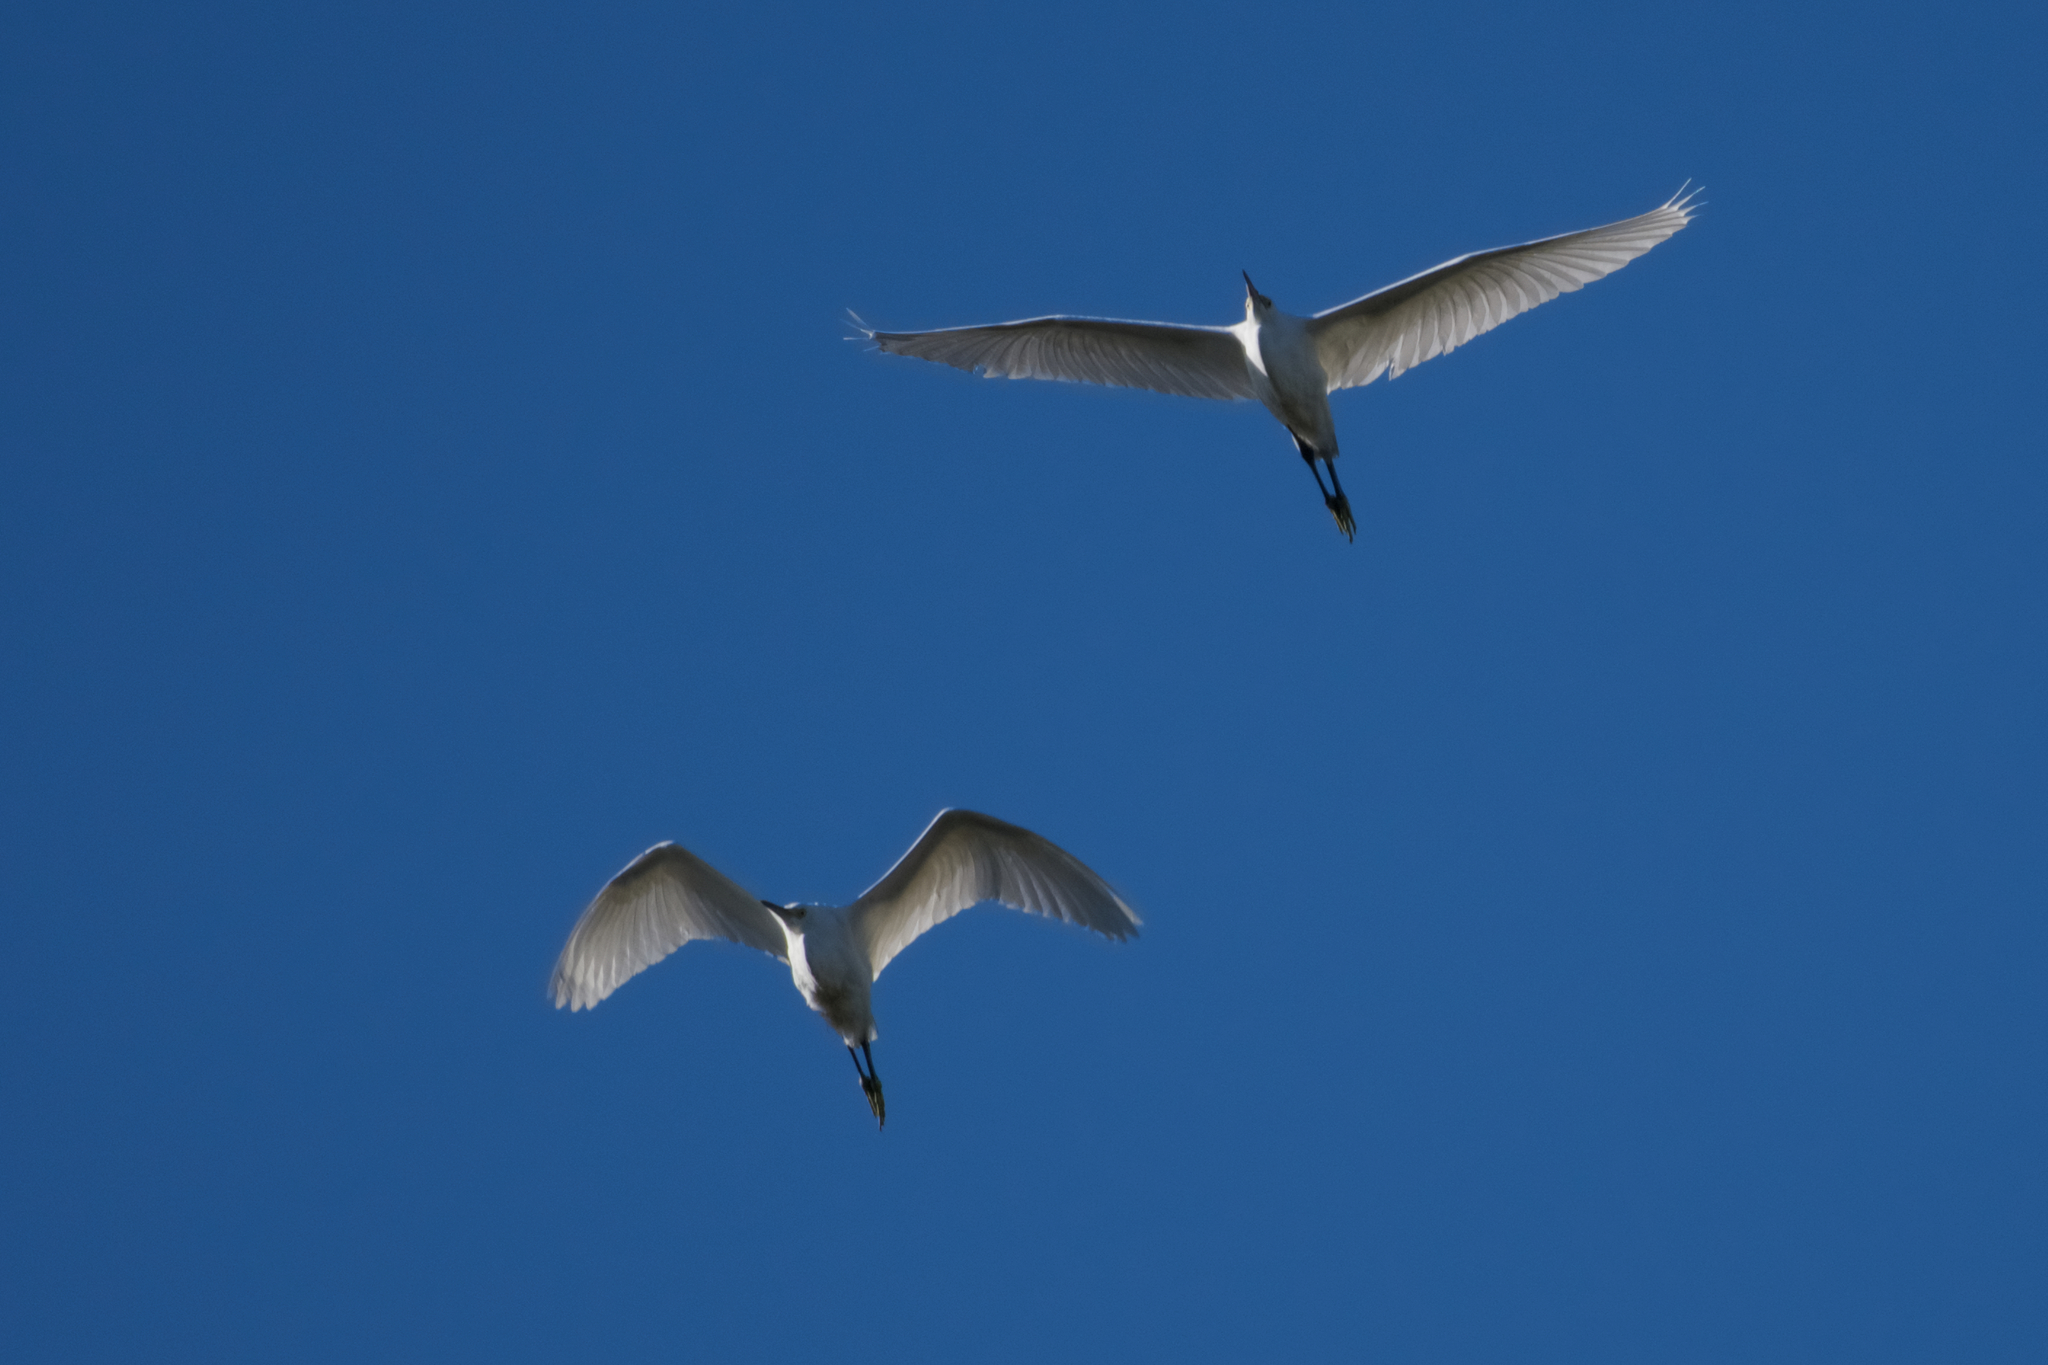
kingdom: Animalia
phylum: Chordata
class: Aves
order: Pelecaniformes
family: Ardeidae
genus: Egretta
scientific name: Egretta thula
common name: Snowy egret
